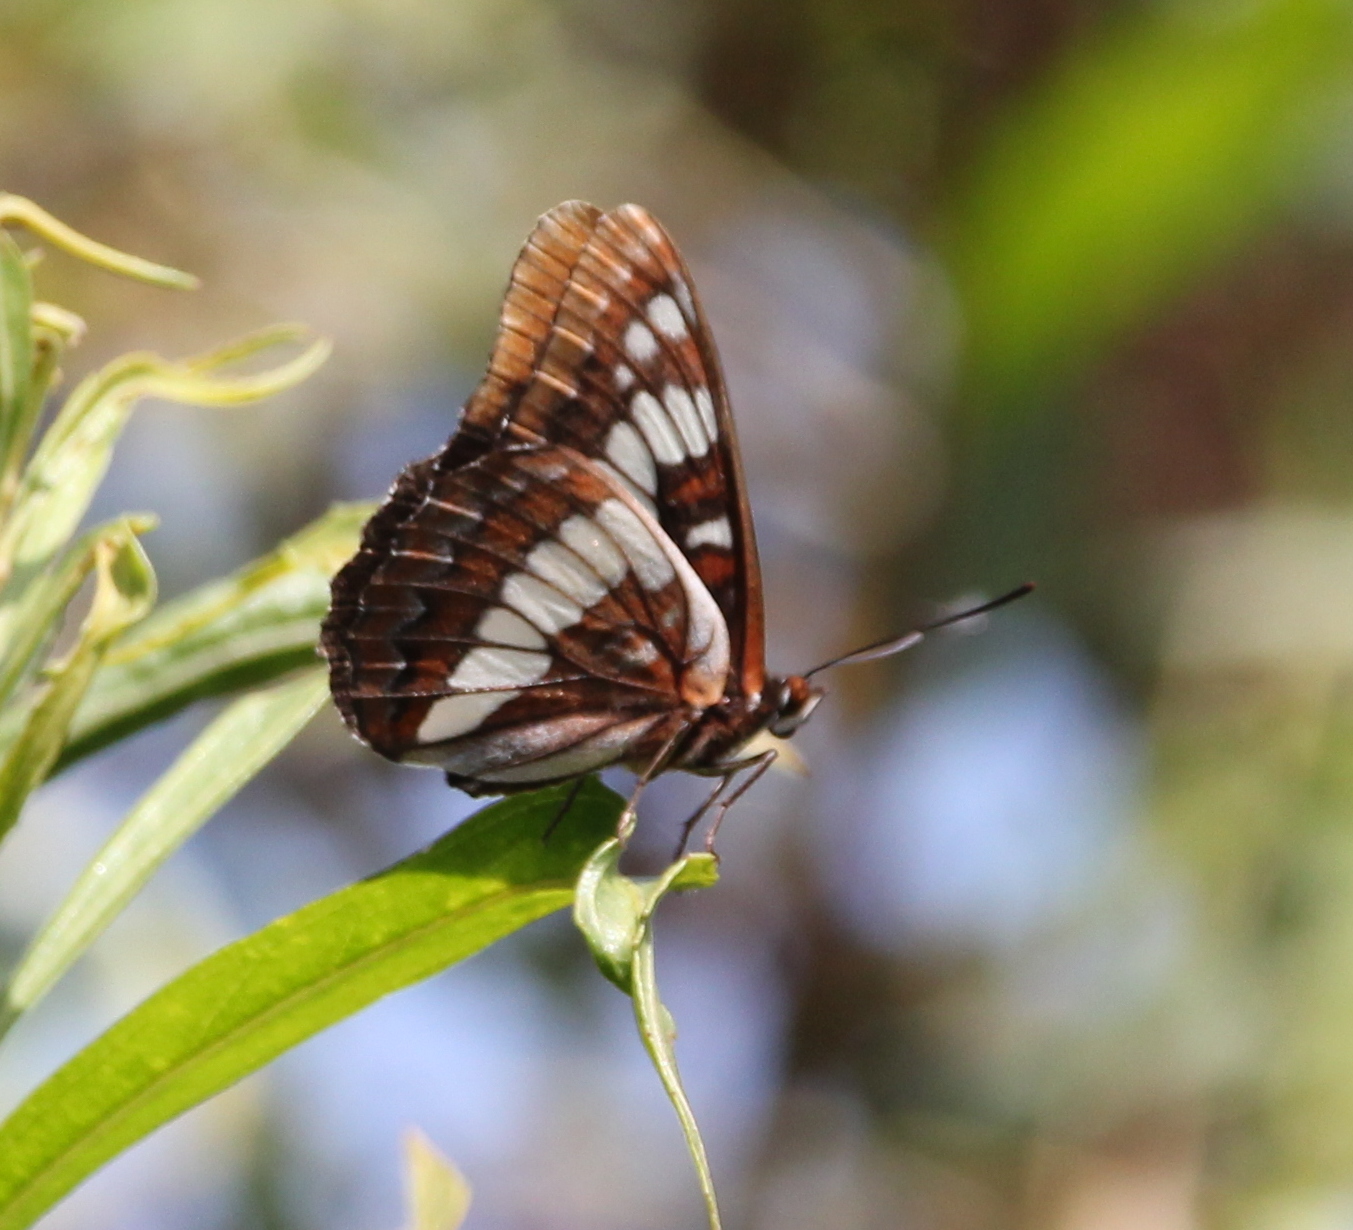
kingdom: Animalia
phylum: Arthropoda
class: Insecta
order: Lepidoptera
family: Nymphalidae
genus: Limenitis
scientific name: Limenitis lorquini
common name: Lorquin's admiral
